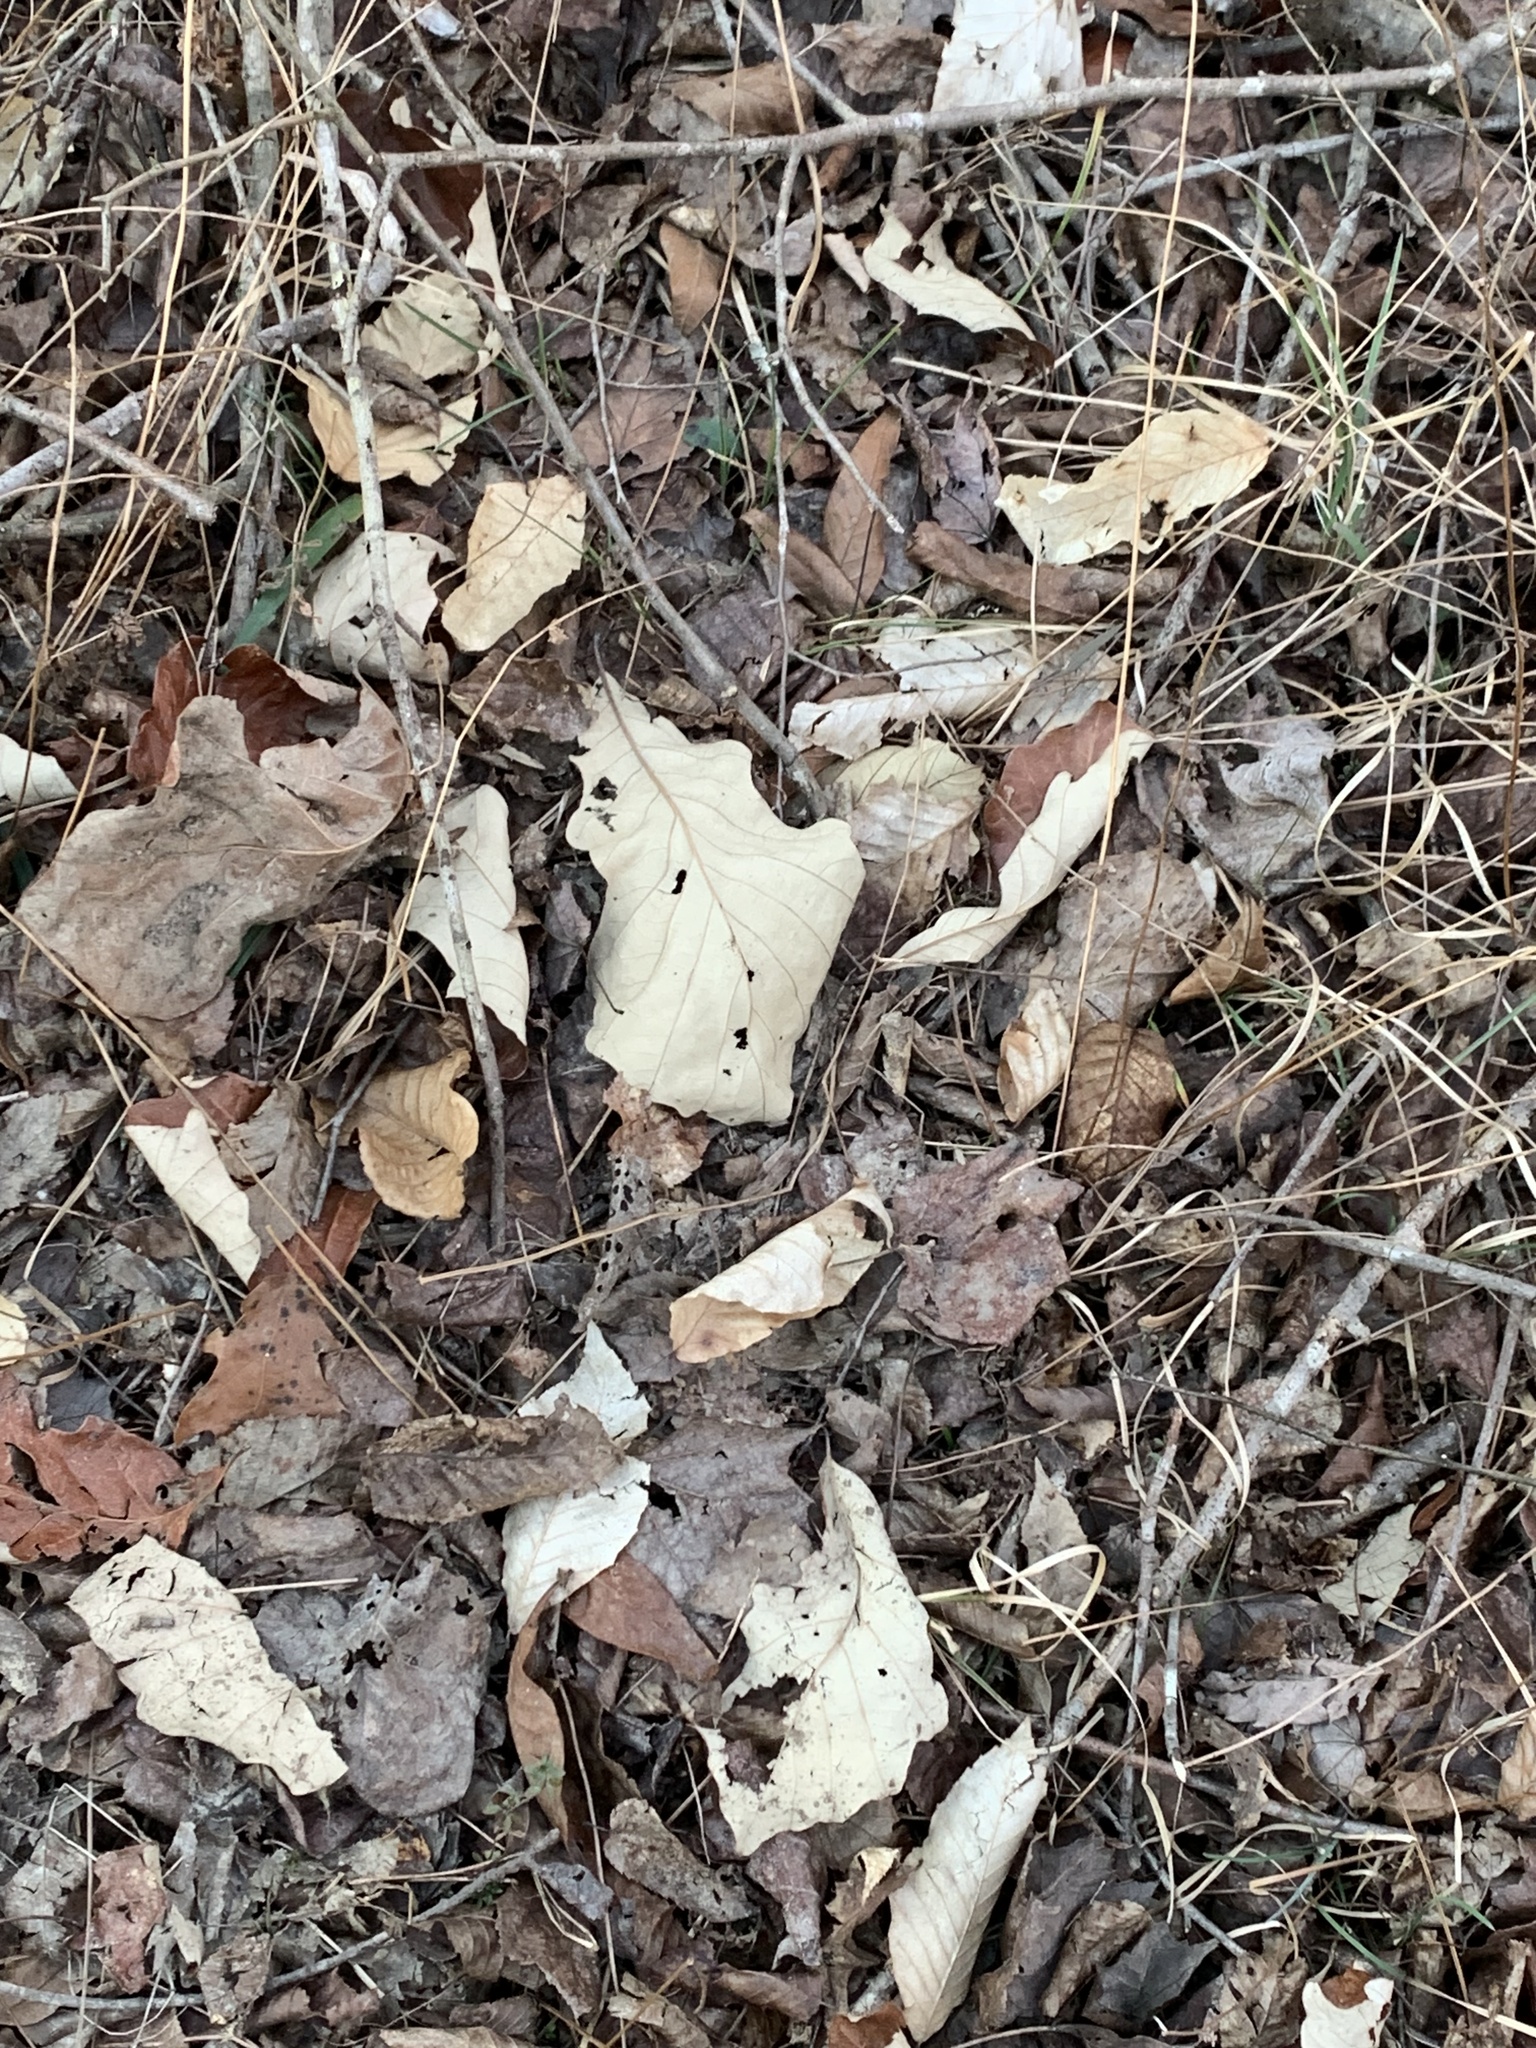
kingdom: Plantae
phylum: Tracheophyta
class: Magnoliopsida
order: Fagales
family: Fagaceae
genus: Quercus
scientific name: Quercus bicolor
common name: Swamp white oak
